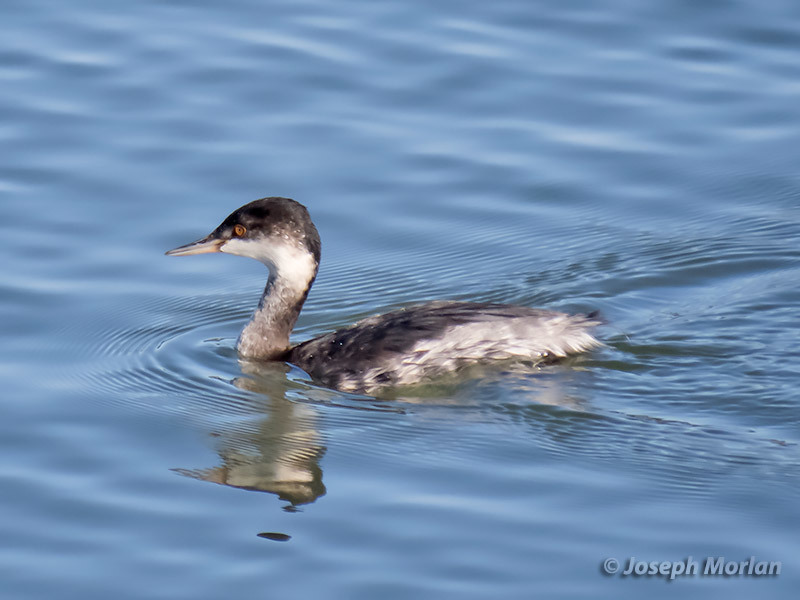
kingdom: Animalia
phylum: Chordata
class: Aves
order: Podicipediformes
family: Podicipedidae
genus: Podiceps
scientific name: Podiceps nigricollis
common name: Black-necked grebe
